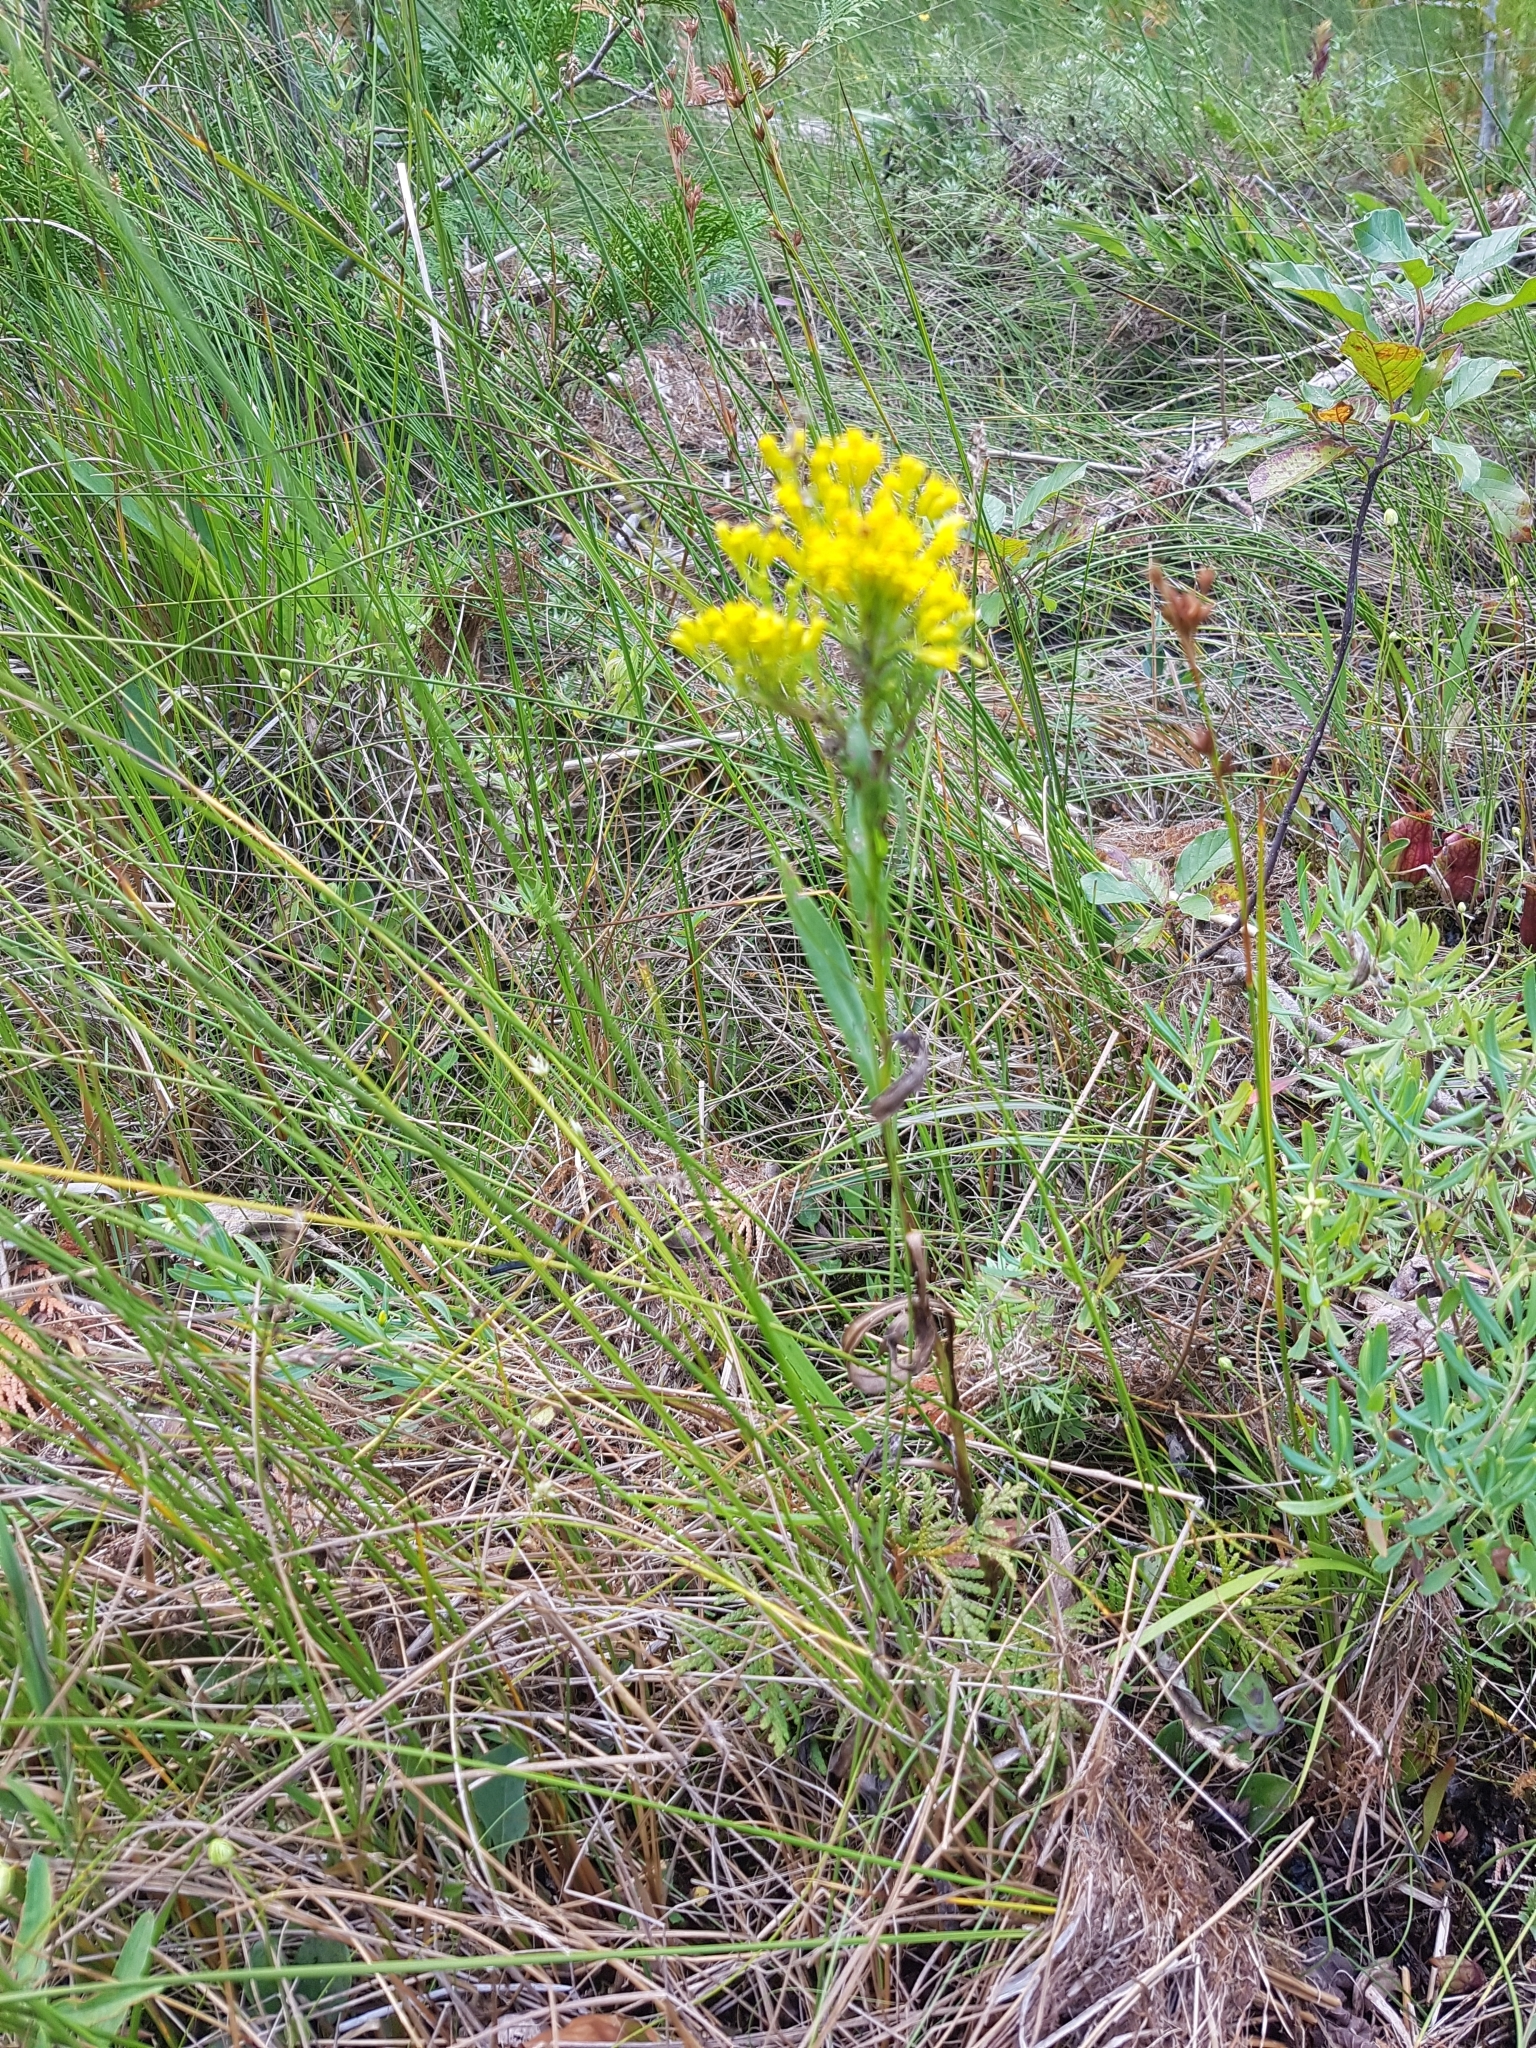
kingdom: Plantae
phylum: Tracheophyta
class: Magnoliopsida
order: Asterales
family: Asteraceae
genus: Solidago
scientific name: Solidago ohioensis
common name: Ohio goldenrod
